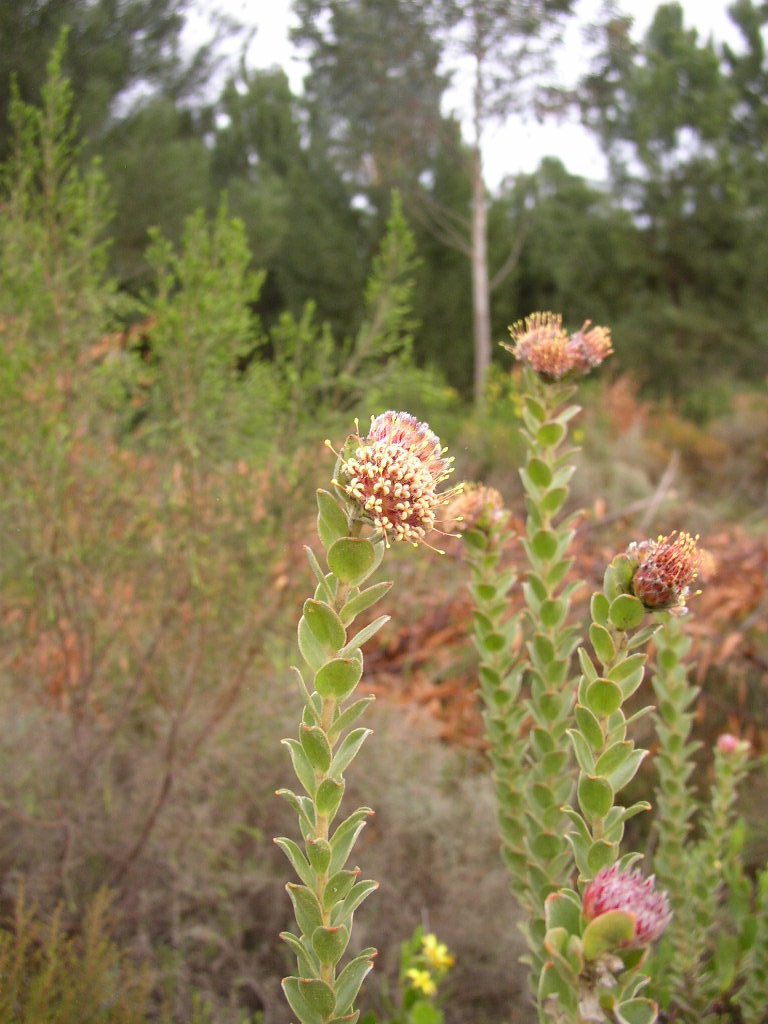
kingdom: Plantae
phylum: Tracheophyta
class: Magnoliopsida
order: Proteales
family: Proteaceae
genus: Leucospermum
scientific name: Leucospermum truncatulum
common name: Oval-leaf pincushion
